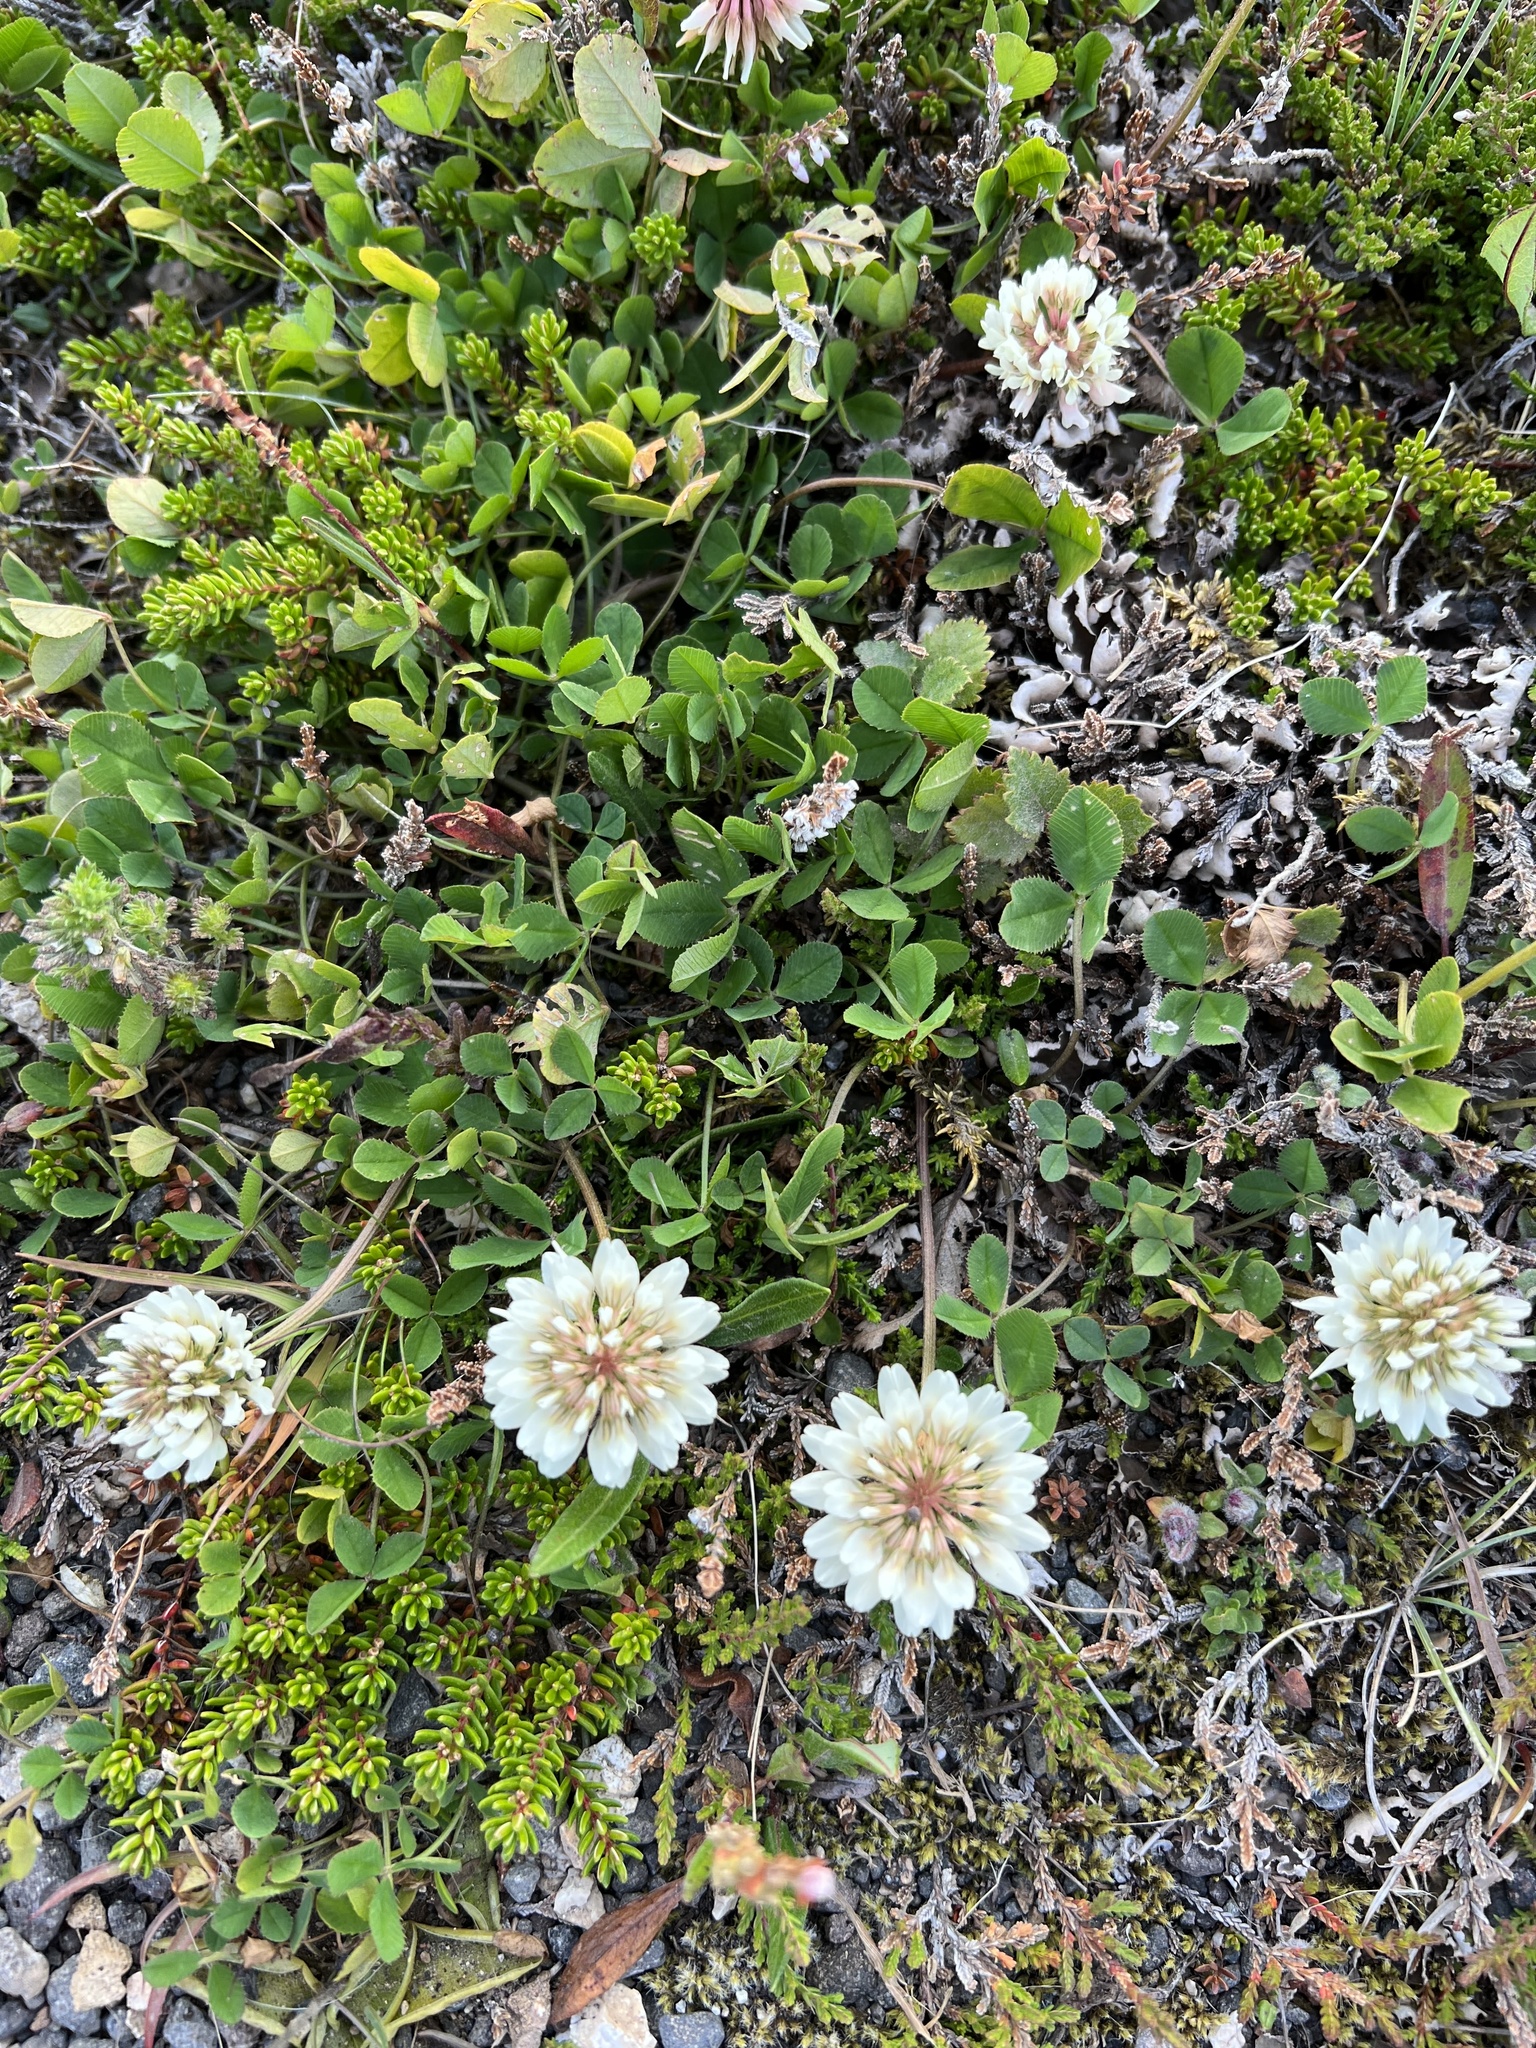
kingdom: Plantae
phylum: Tracheophyta
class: Magnoliopsida
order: Fabales
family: Fabaceae
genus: Trifolium
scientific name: Trifolium repens
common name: White clover
